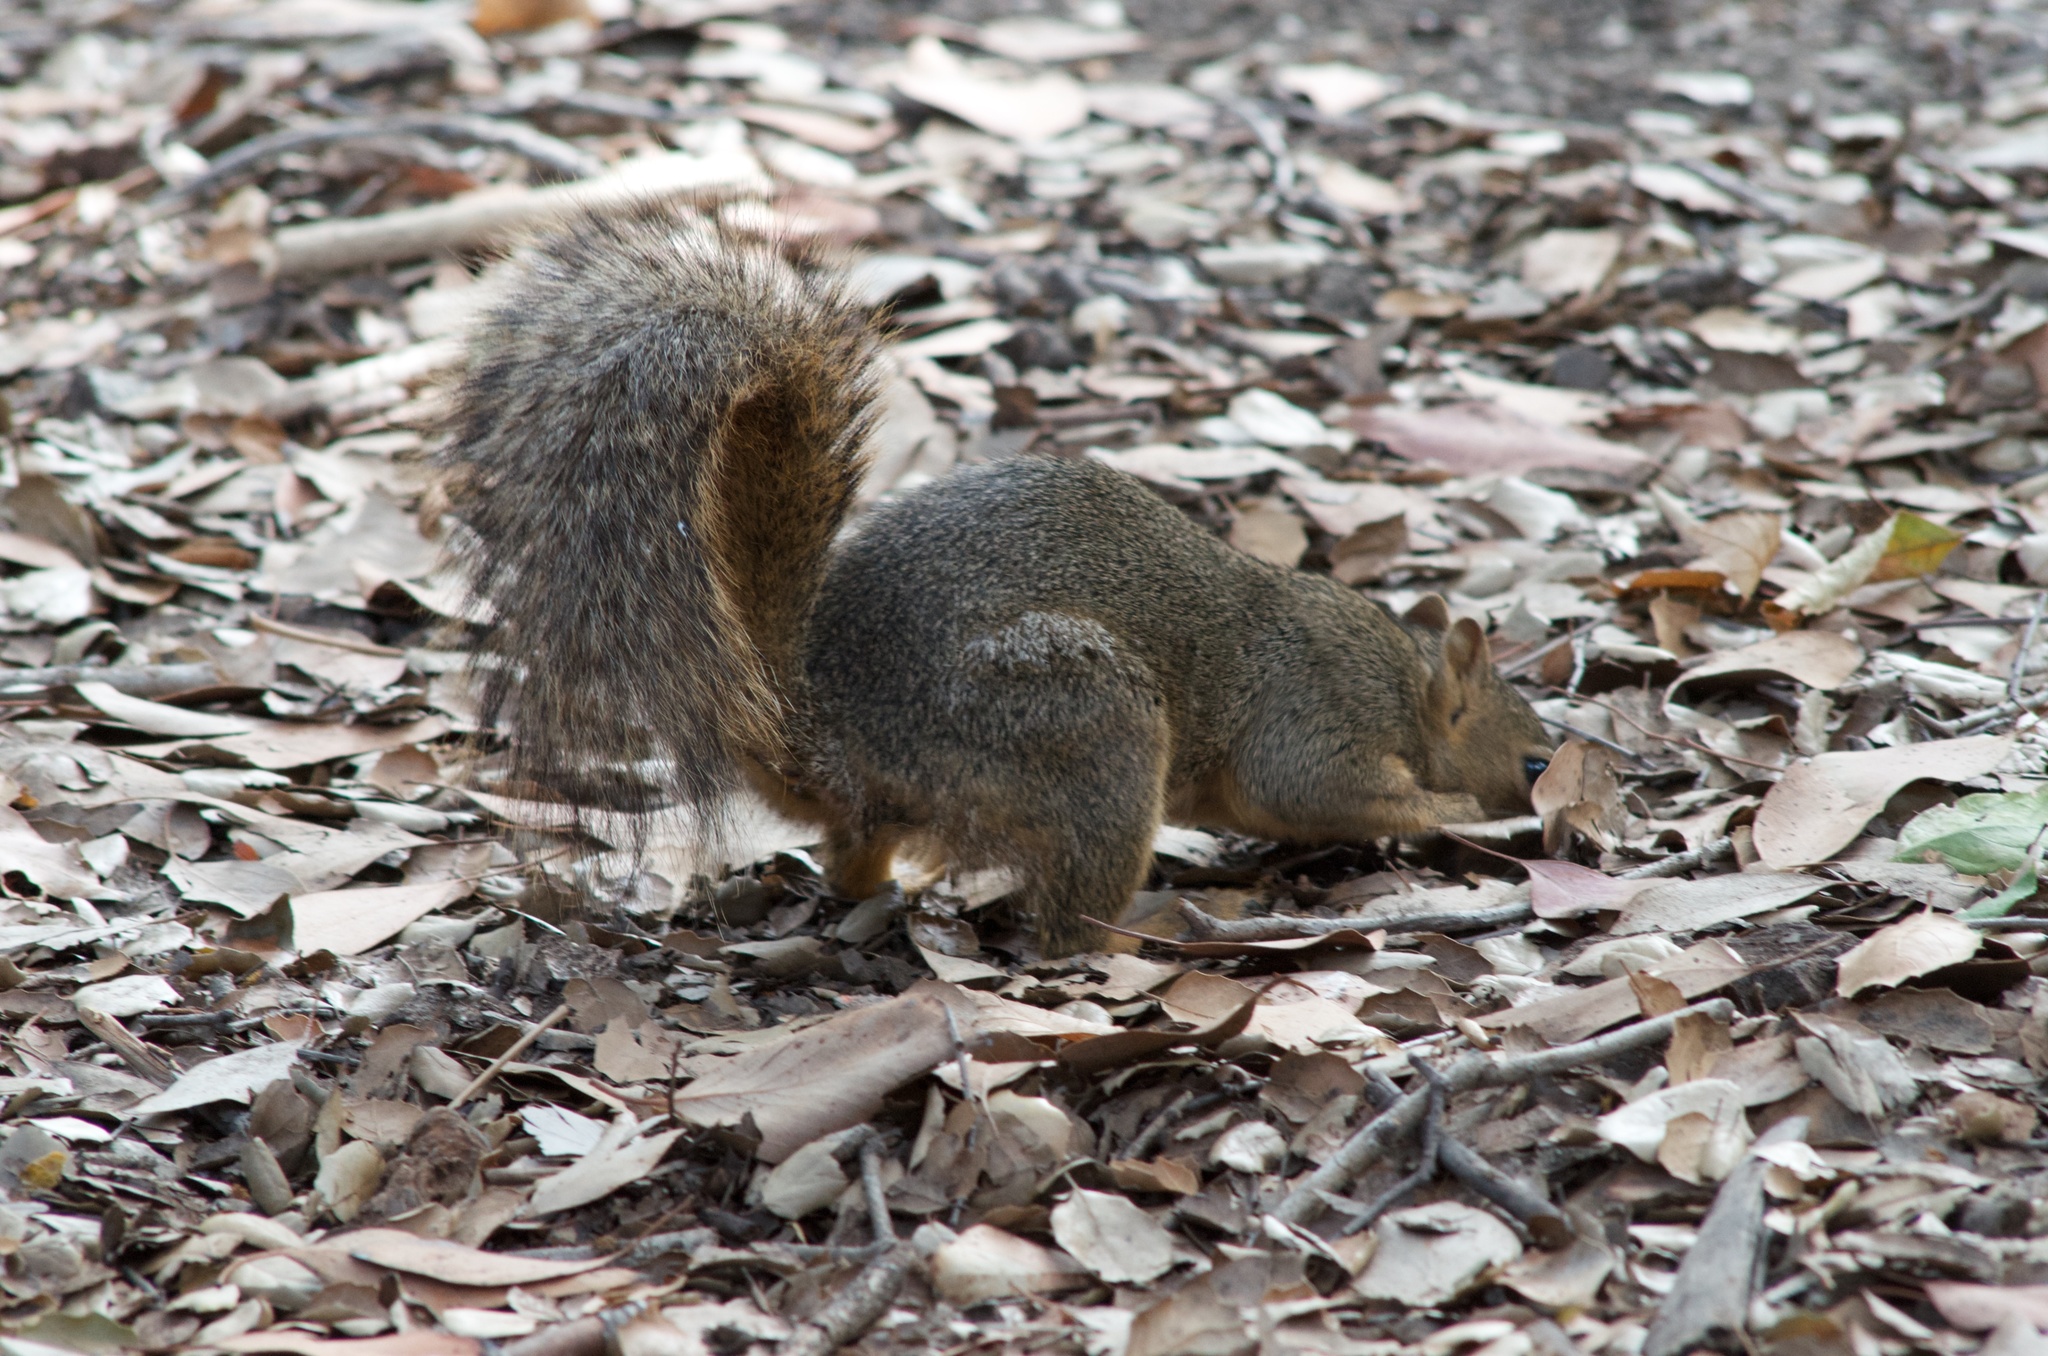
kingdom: Animalia
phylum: Chordata
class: Mammalia
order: Rodentia
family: Sciuridae
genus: Sciurus
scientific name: Sciurus niger
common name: Fox squirrel
